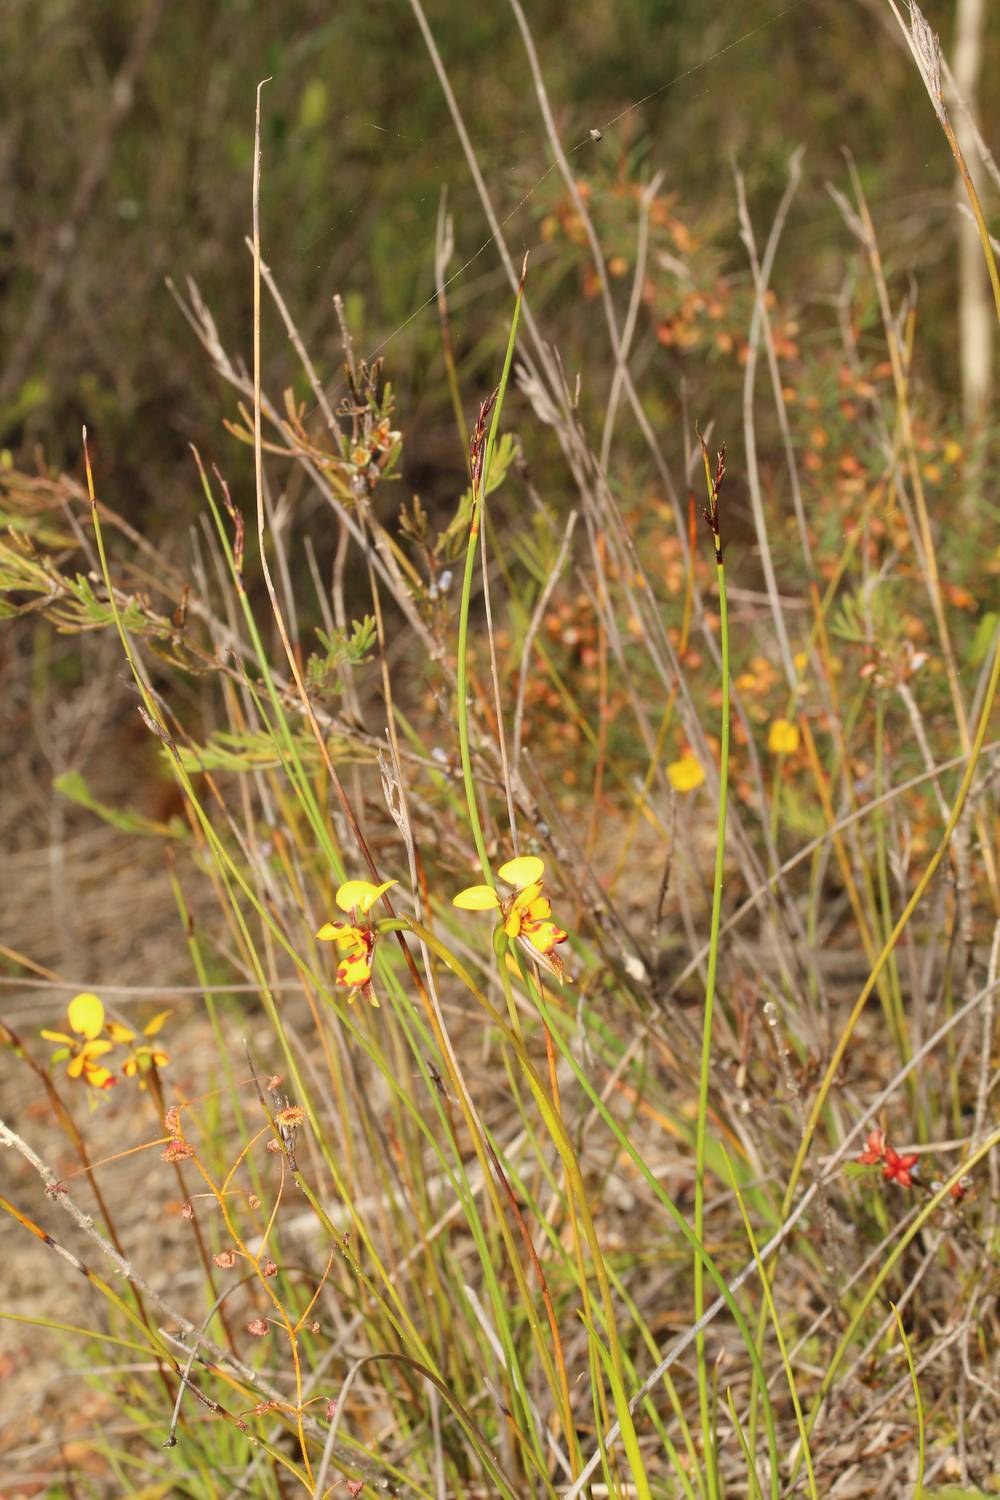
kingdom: Plantae
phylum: Tracheophyta
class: Liliopsida
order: Asparagales
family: Orchidaceae
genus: Diuris
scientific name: Diuris laxiflora
